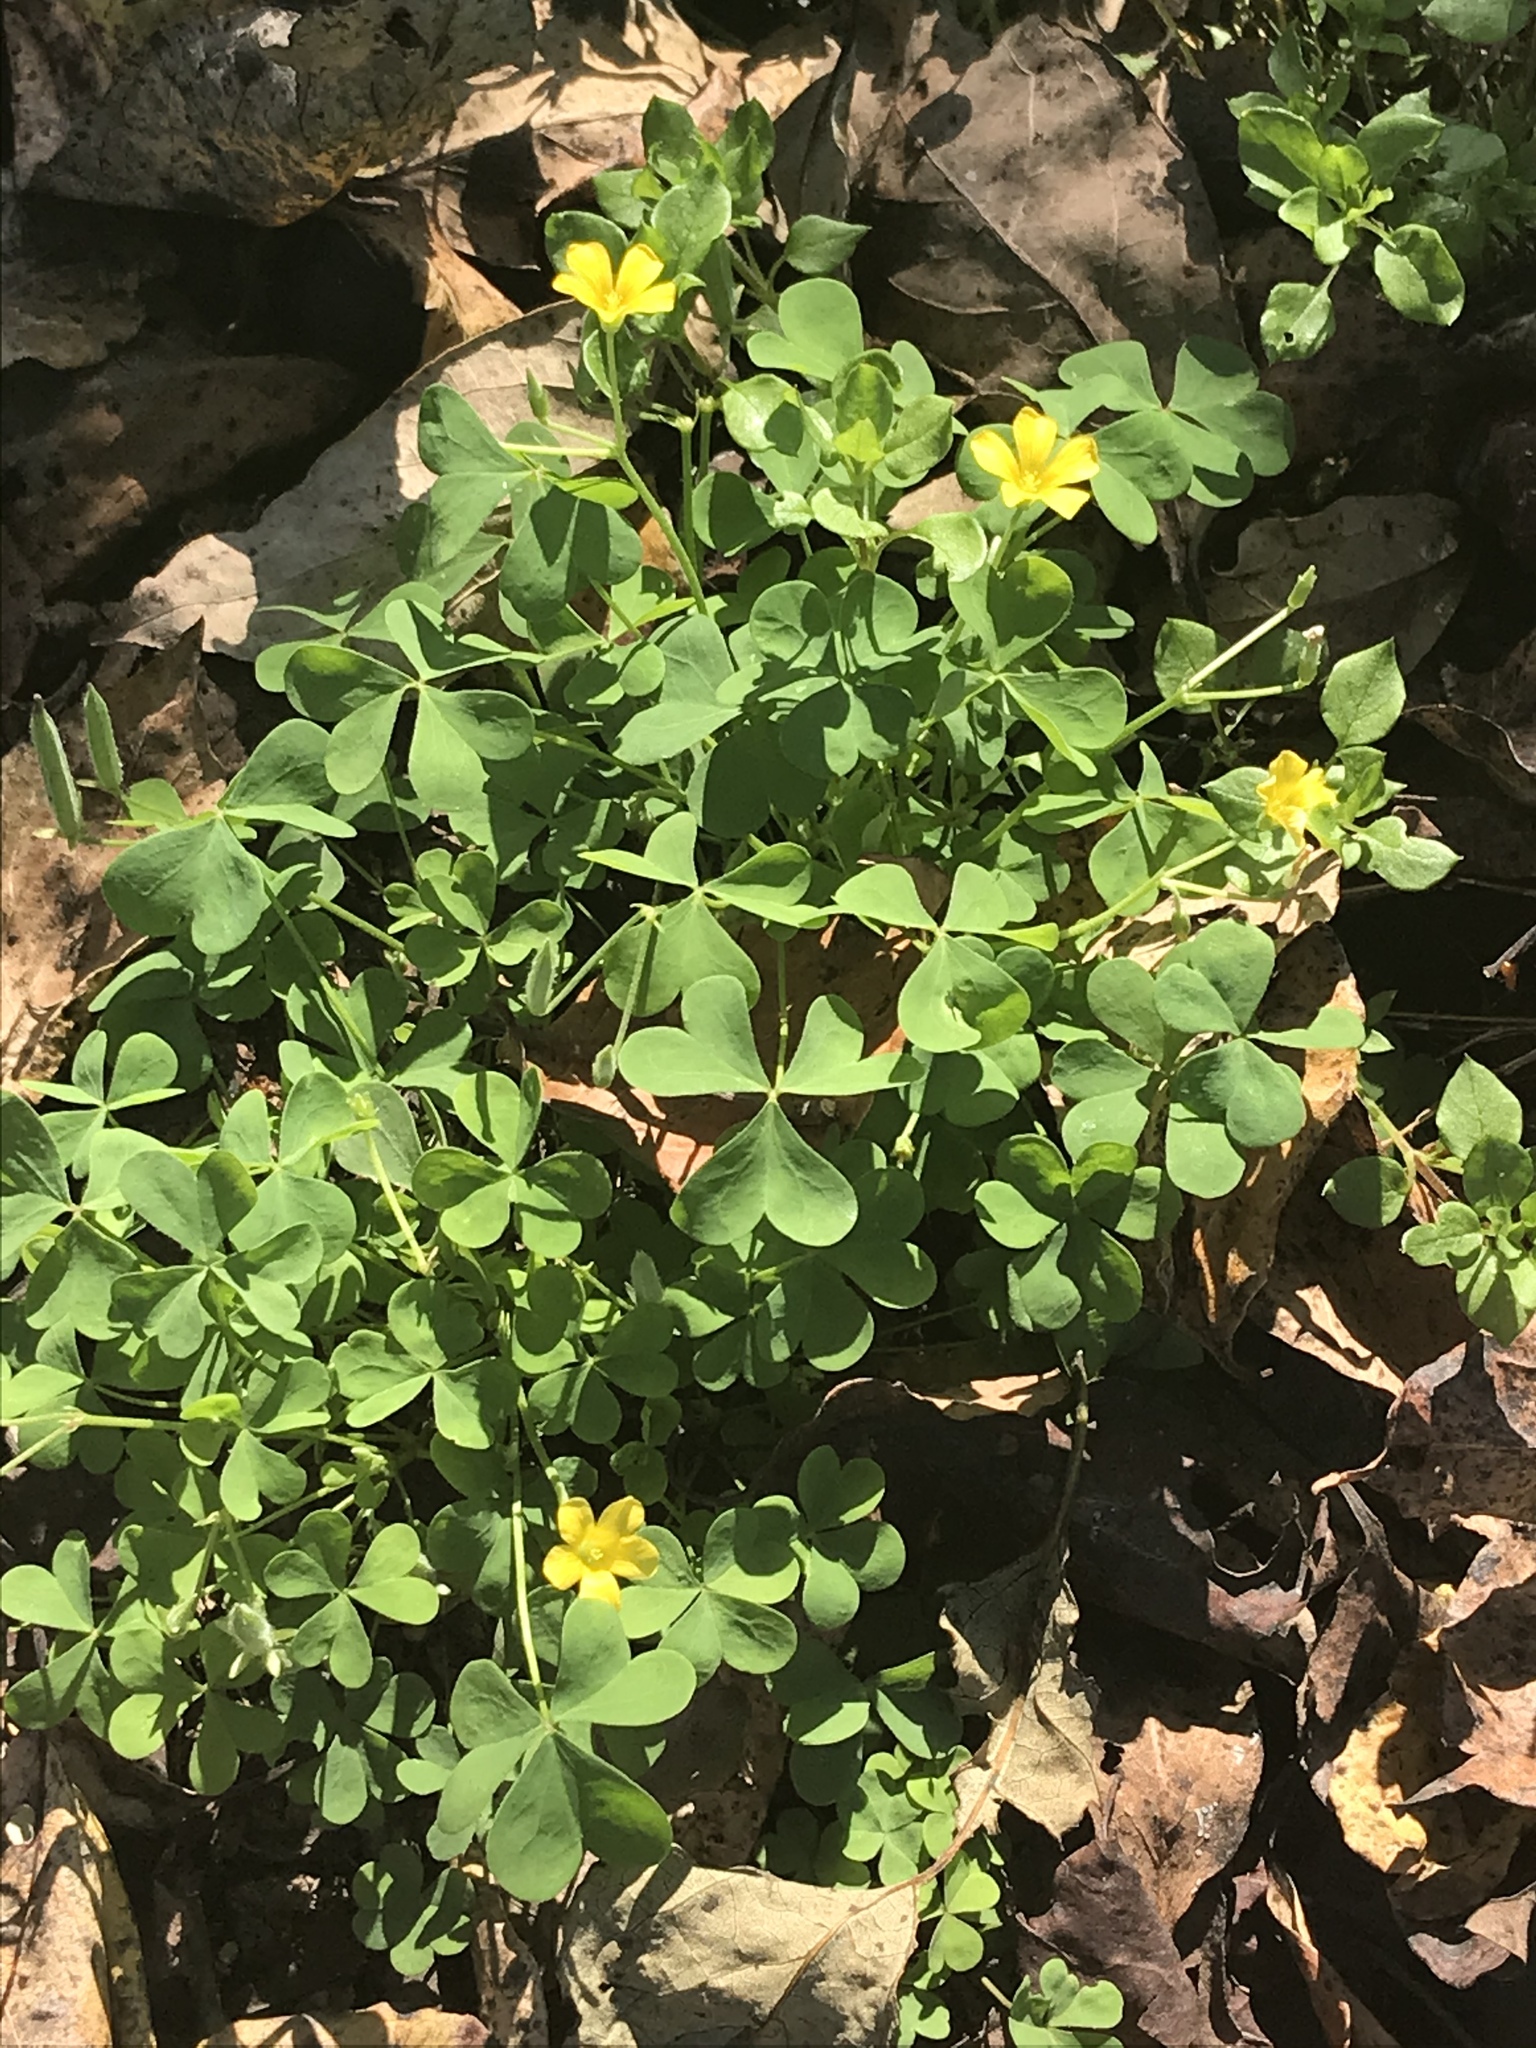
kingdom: Plantae
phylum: Tracheophyta
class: Magnoliopsida
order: Oxalidales
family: Oxalidaceae
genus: Oxalis
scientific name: Oxalis corniculata
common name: Procumbent yellow-sorrel
